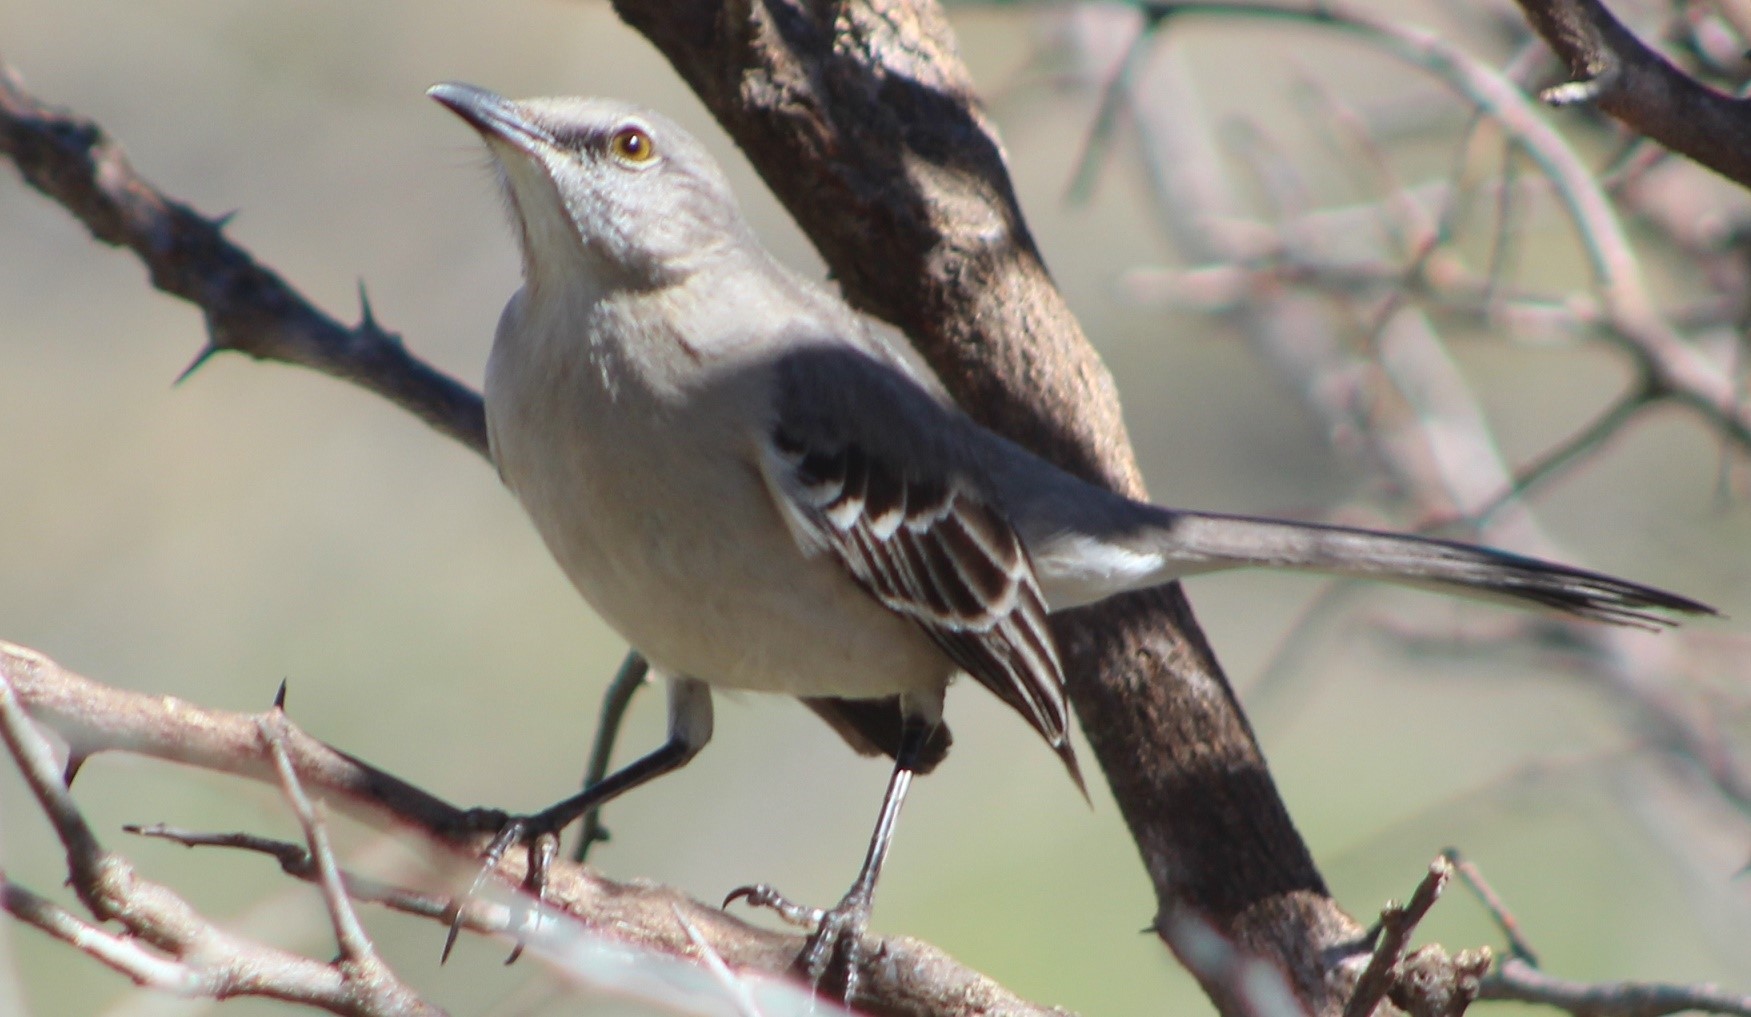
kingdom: Animalia
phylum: Chordata
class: Aves
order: Passeriformes
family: Mimidae
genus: Mimus
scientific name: Mimus polyglottos
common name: Northern mockingbird
